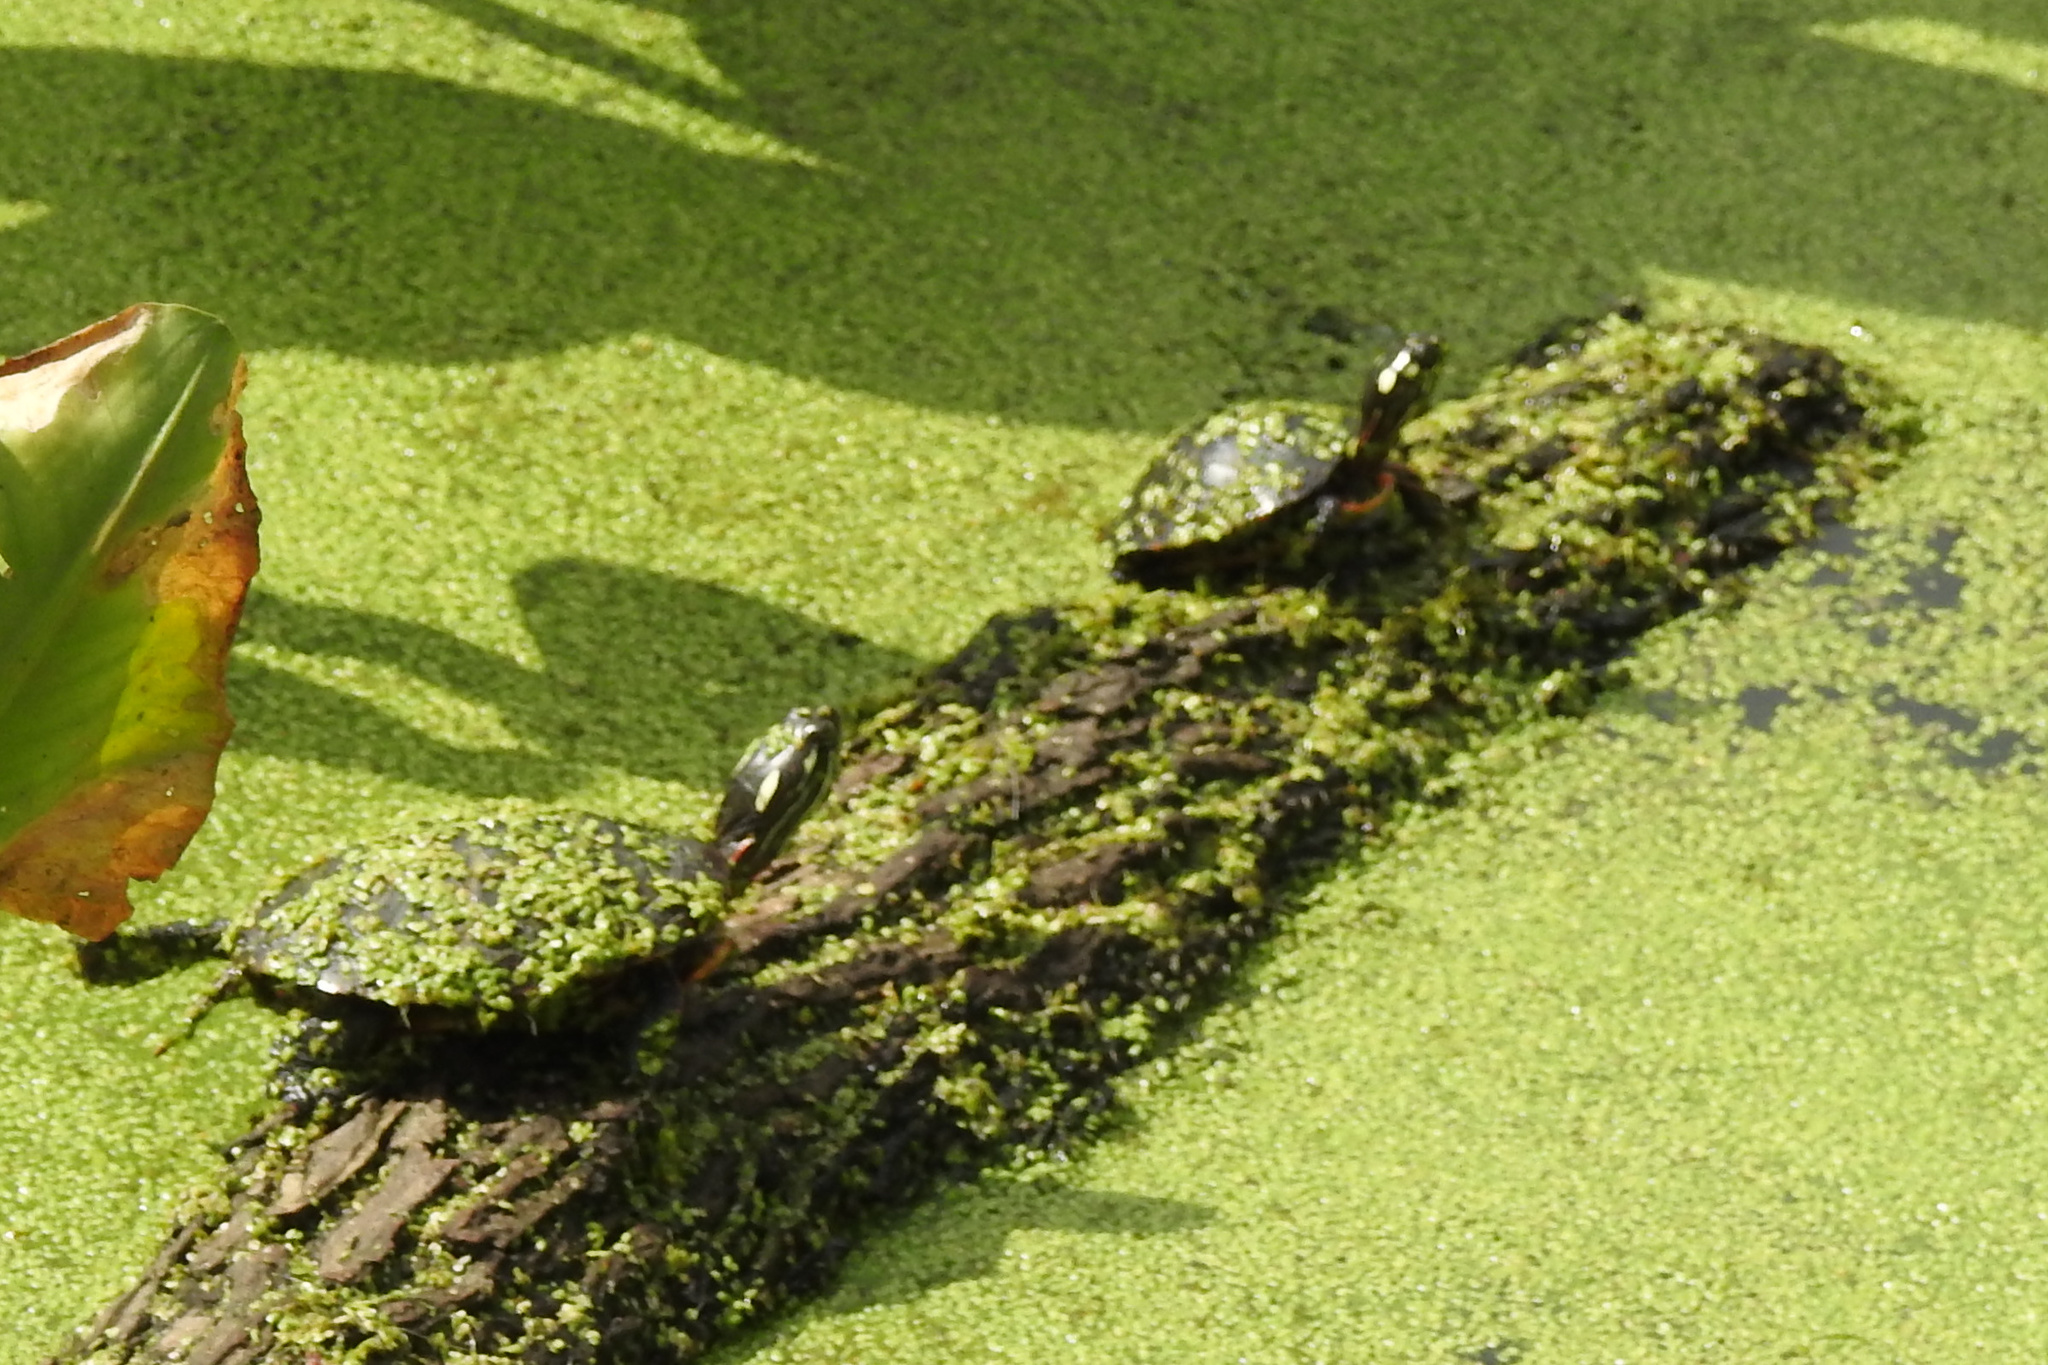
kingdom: Animalia
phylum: Chordata
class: Testudines
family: Emydidae
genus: Chrysemys
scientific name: Chrysemys picta
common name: Painted turtle
